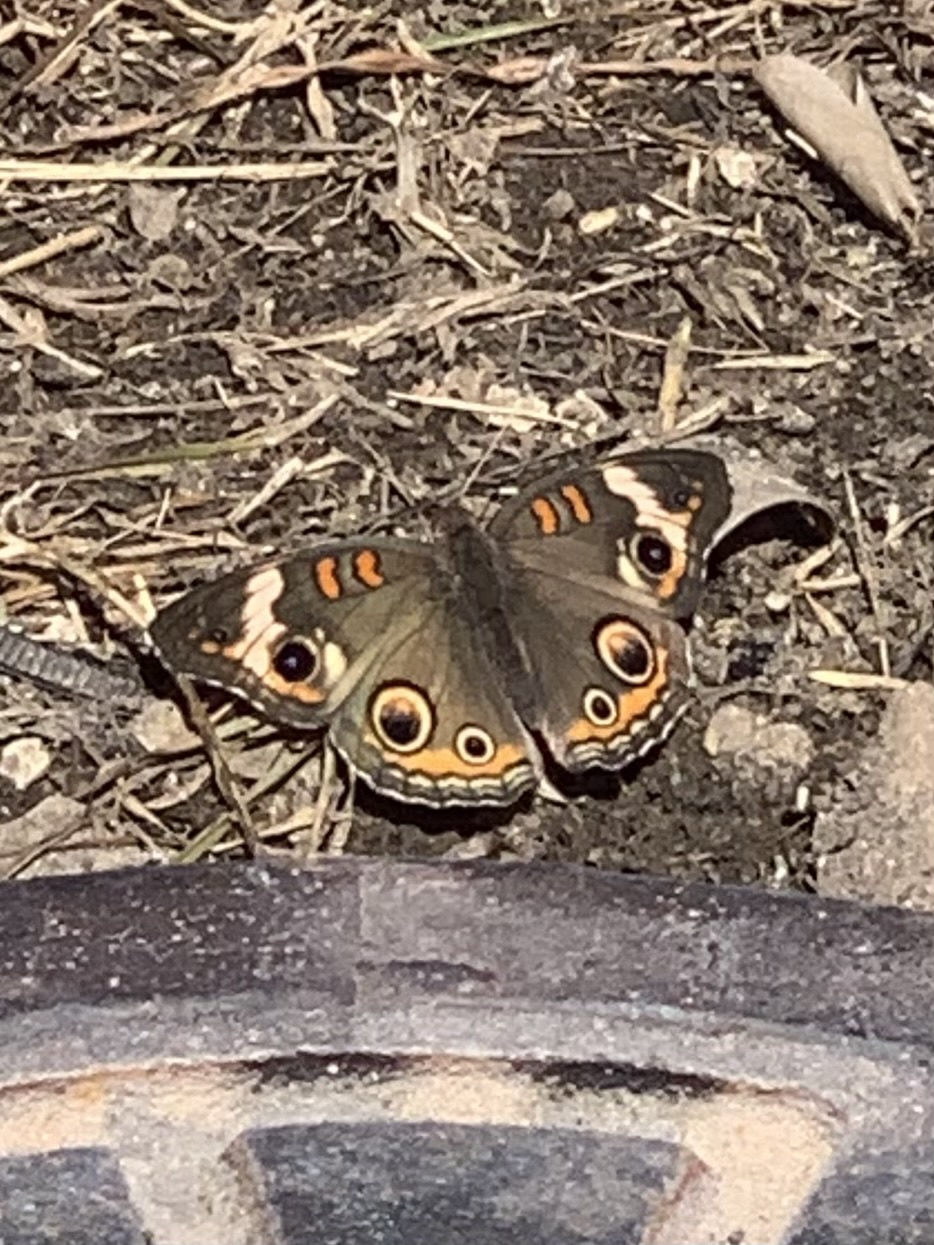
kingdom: Animalia
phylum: Arthropoda
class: Insecta
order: Lepidoptera
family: Nymphalidae
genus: Junonia
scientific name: Junonia coenia
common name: Common buckeye
